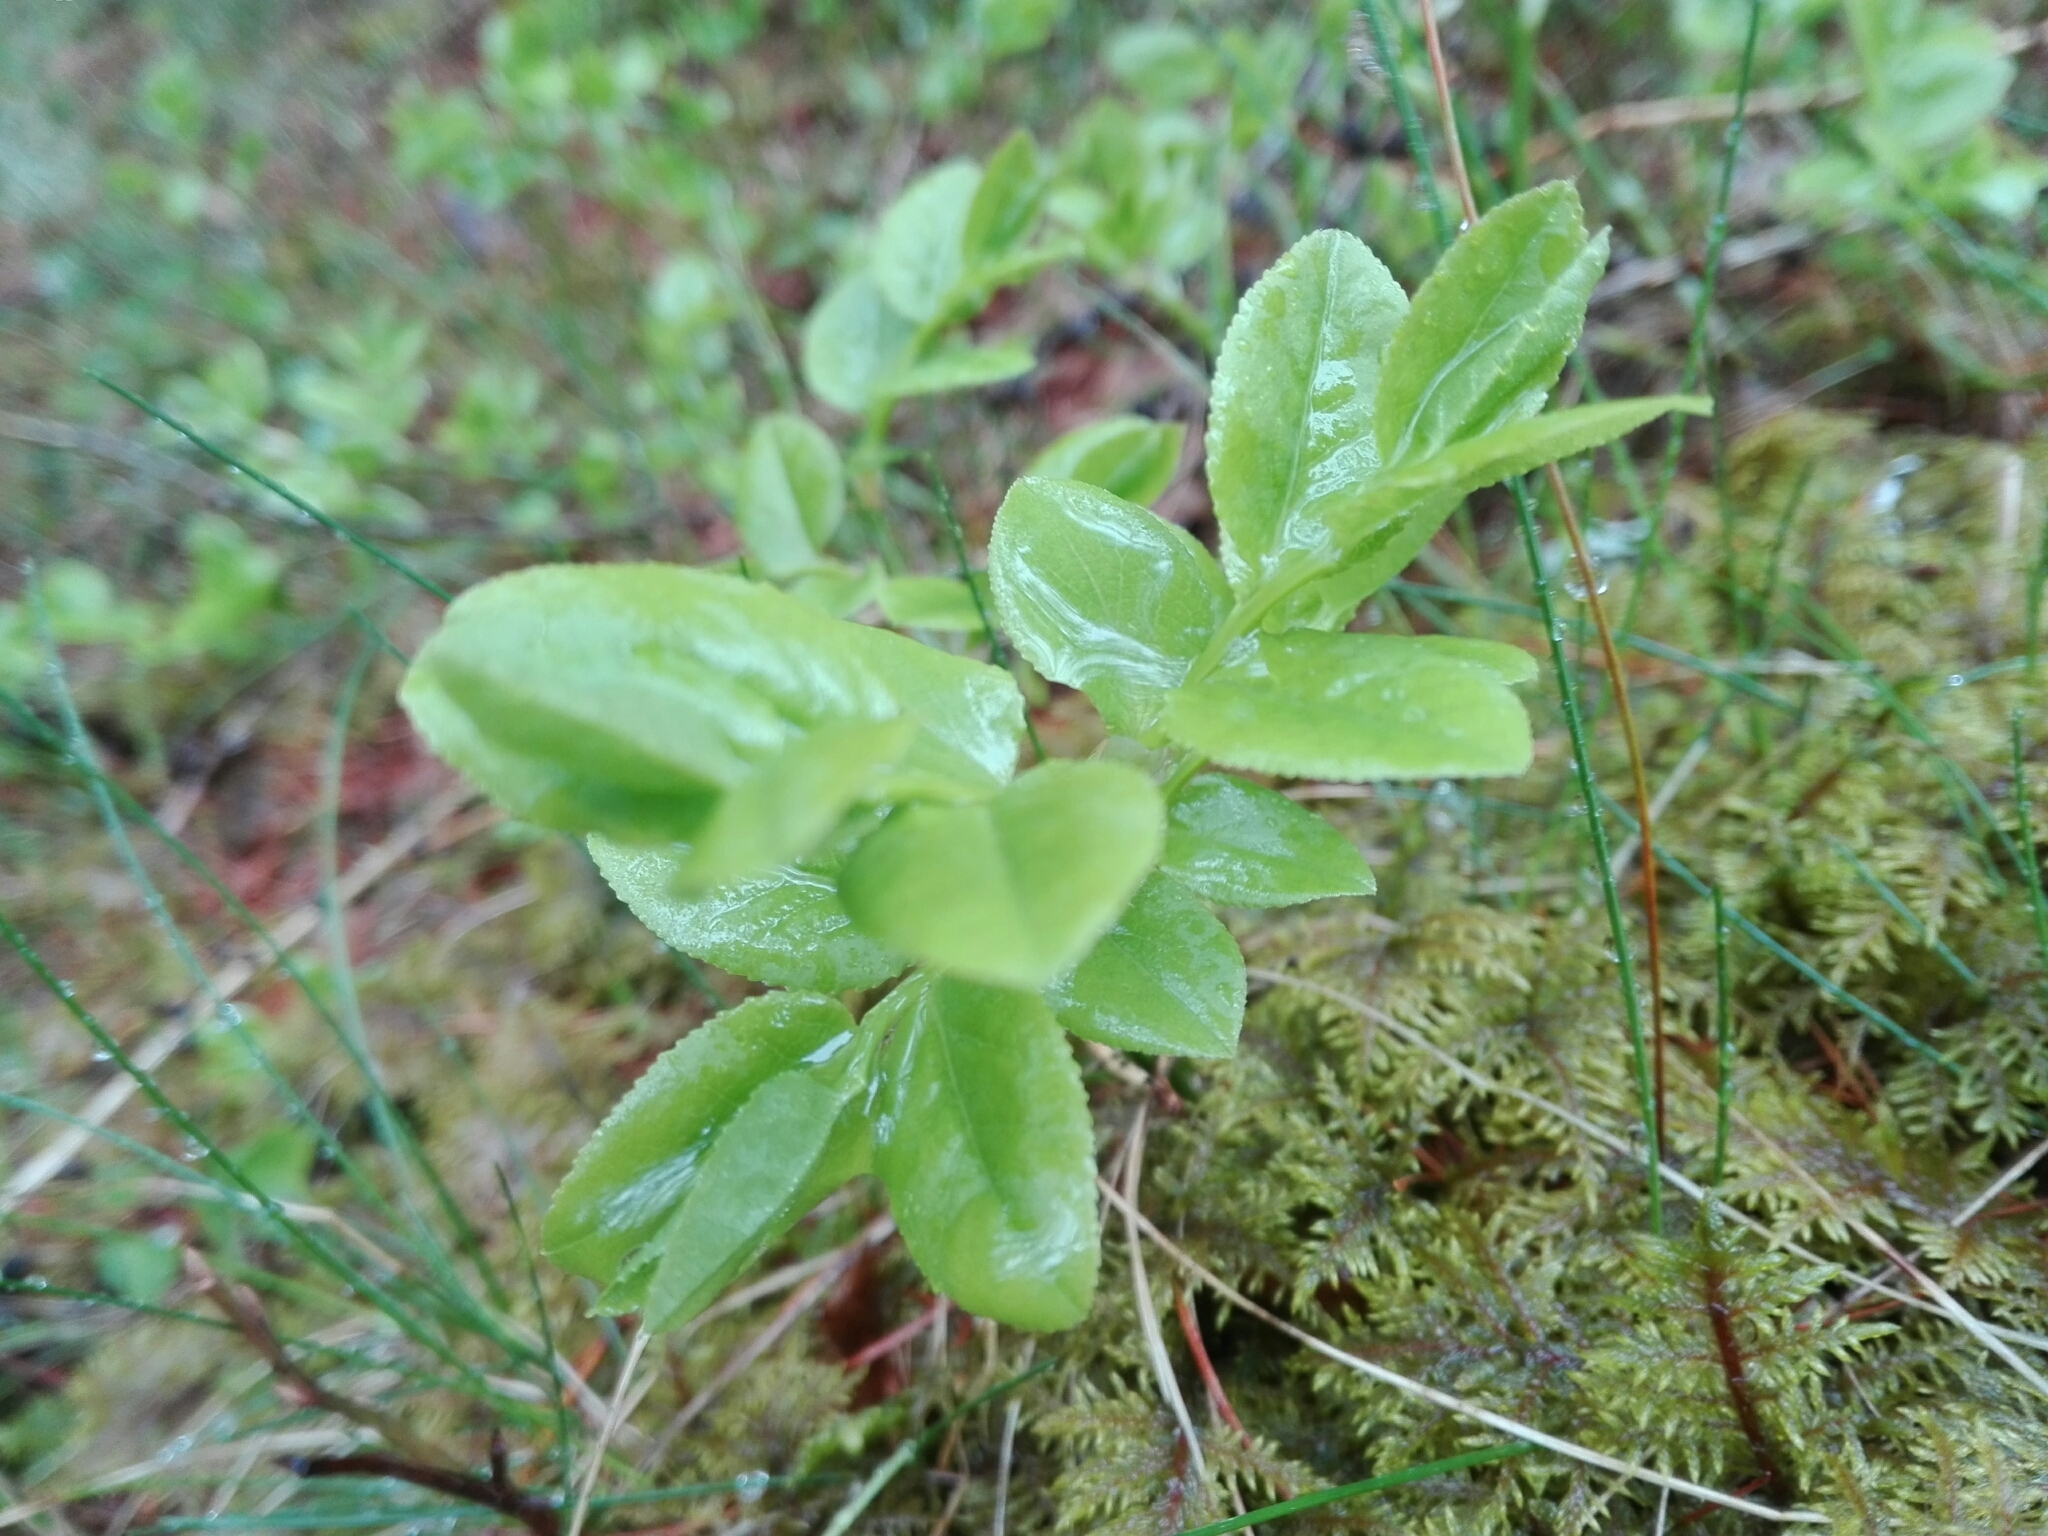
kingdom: Plantae
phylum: Tracheophyta
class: Magnoliopsida
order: Ericales
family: Ericaceae
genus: Vaccinium
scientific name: Vaccinium myrtillus
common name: Bilberry
